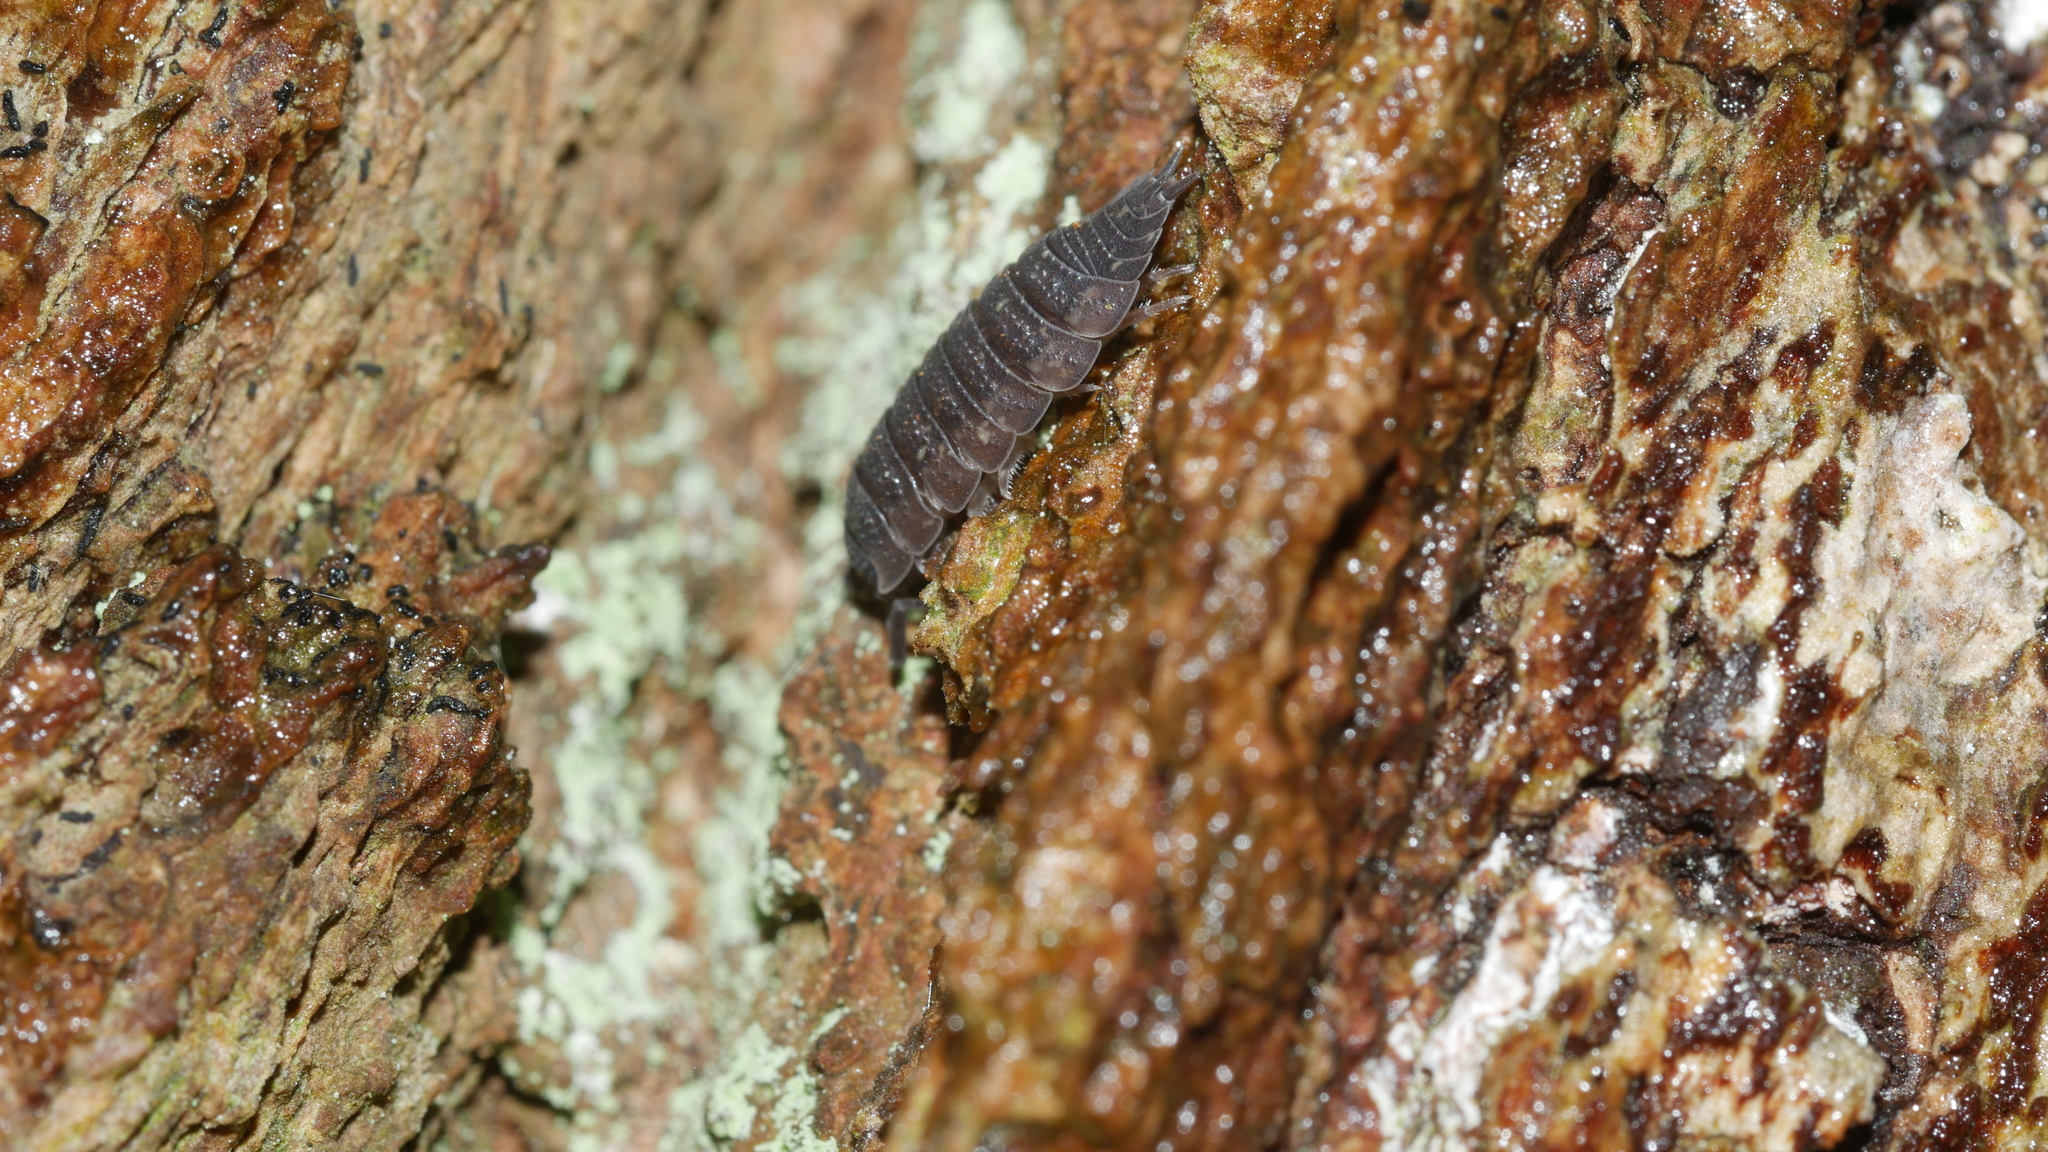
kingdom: Animalia
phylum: Arthropoda
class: Malacostraca
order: Isopoda
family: Porcellionidae
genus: Porcellio
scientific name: Porcellio scaber
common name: Common rough woodlouse
